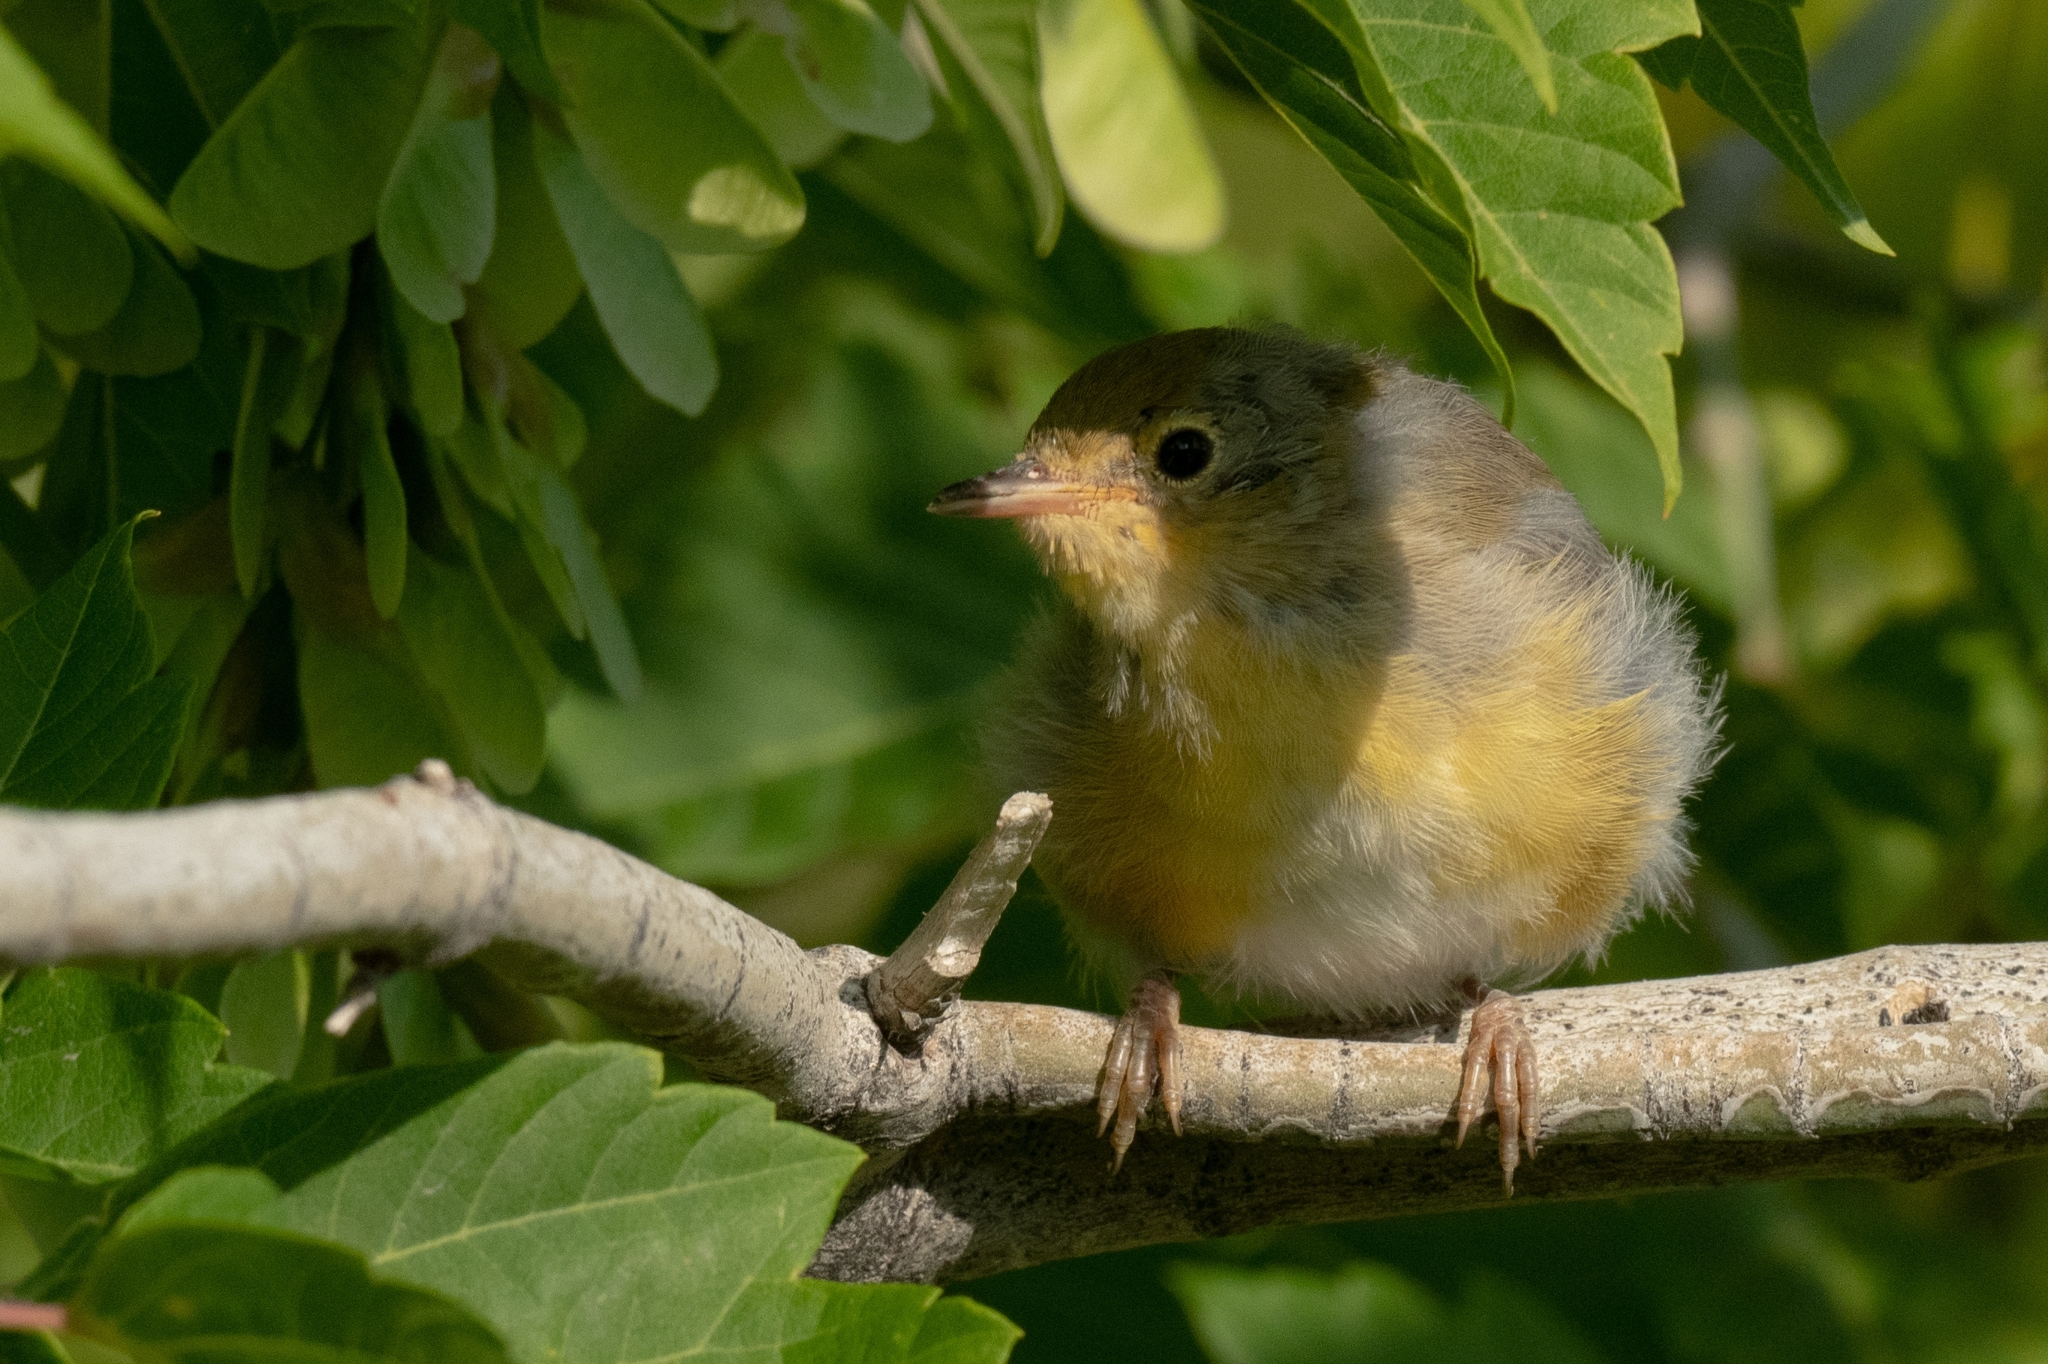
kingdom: Animalia
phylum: Chordata
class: Aves
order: Passeriformes
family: Parulidae
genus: Setophaga
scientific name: Setophaga petechia
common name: Yellow warbler
